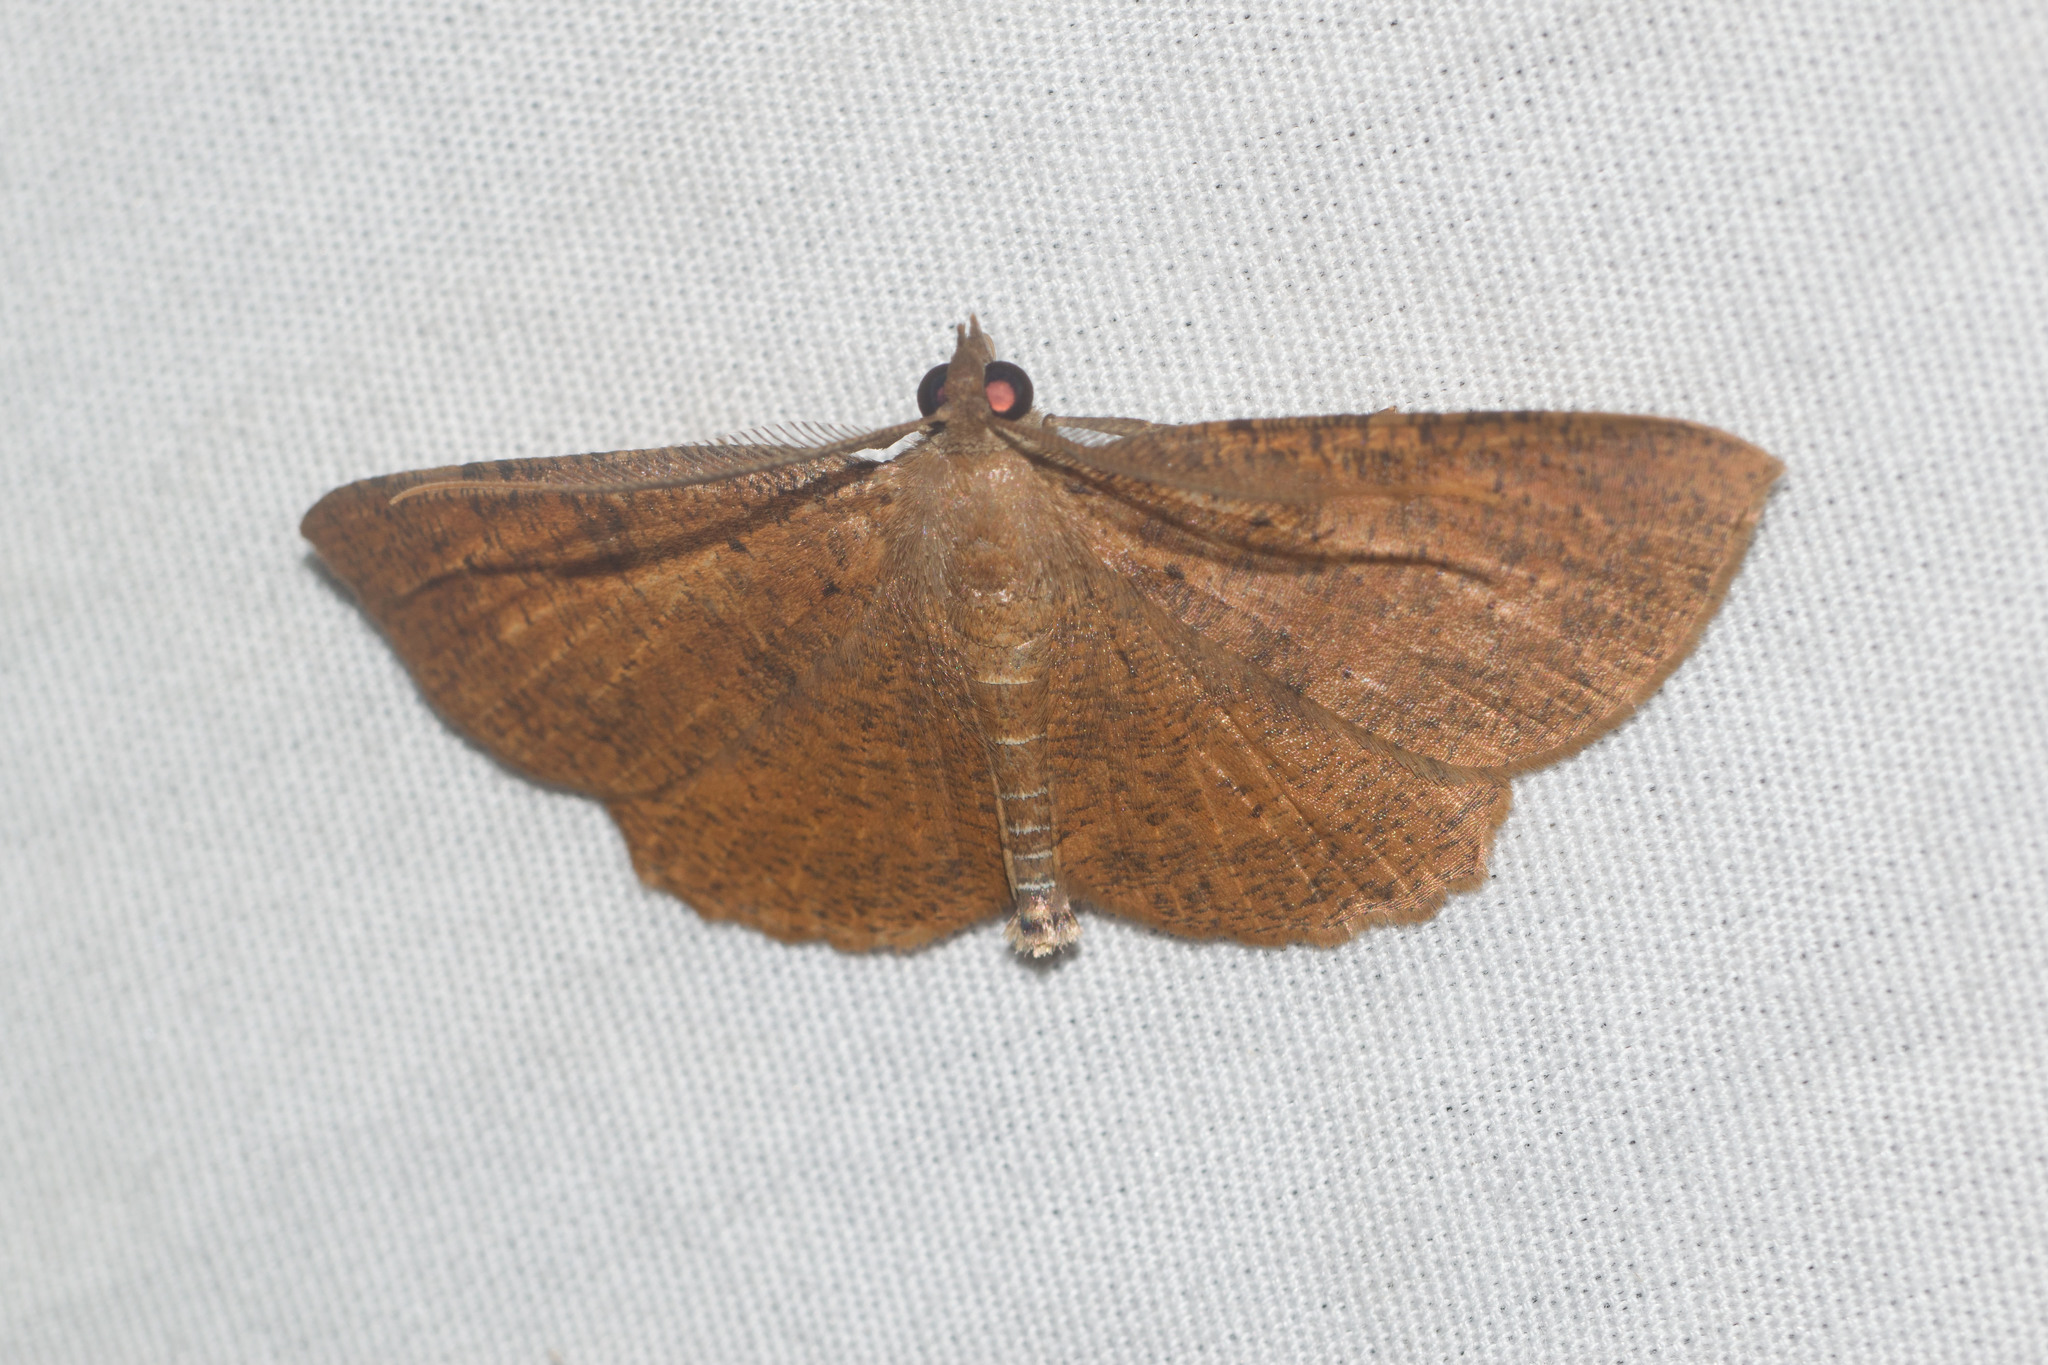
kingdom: Animalia
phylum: Arthropoda
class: Insecta
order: Lepidoptera
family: Geometridae
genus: Scotorythra
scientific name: Scotorythra corticea
